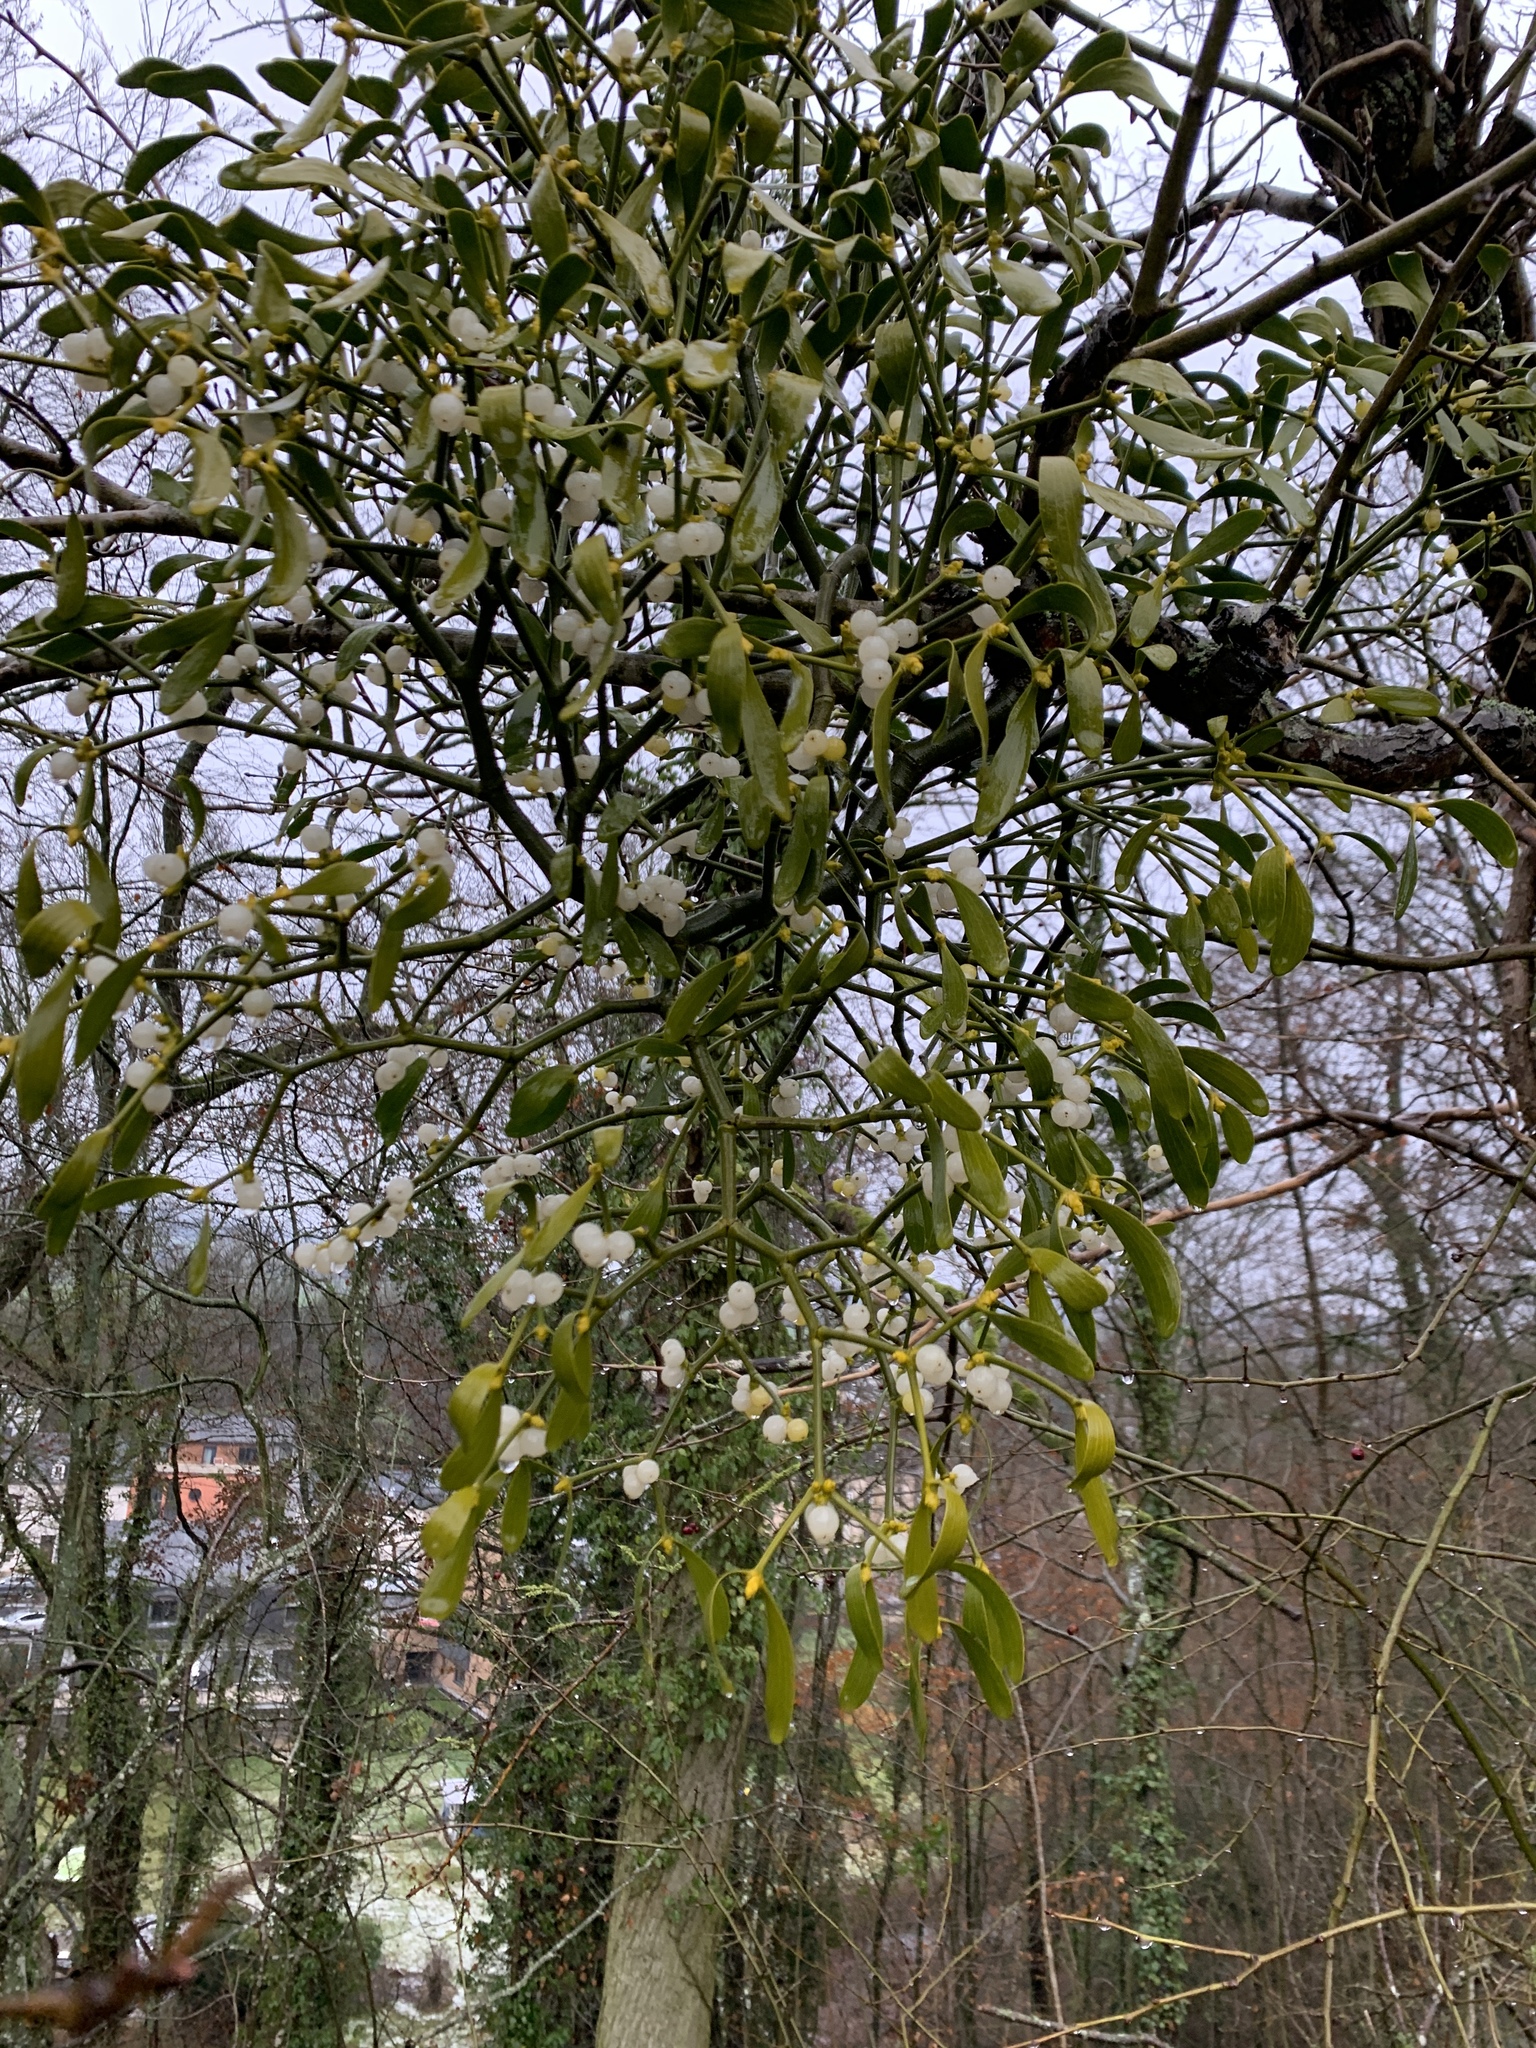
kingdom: Plantae
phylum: Tracheophyta
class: Magnoliopsida
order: Santalales
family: Viscaceae
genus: Viscum
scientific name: Viscum album
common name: Mistletoe
